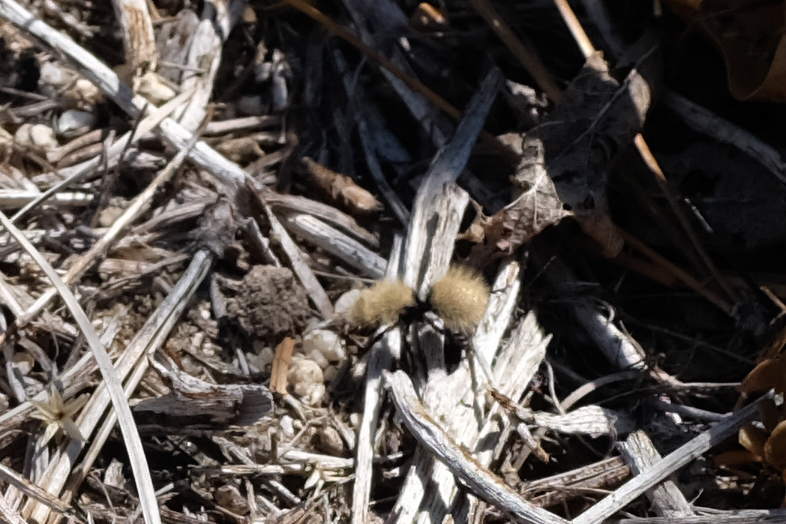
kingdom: Animalia
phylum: Arthropoda
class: Insecta
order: Hymenoptera
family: Mutillidae
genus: Dasymutilla
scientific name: Dasymutilla
